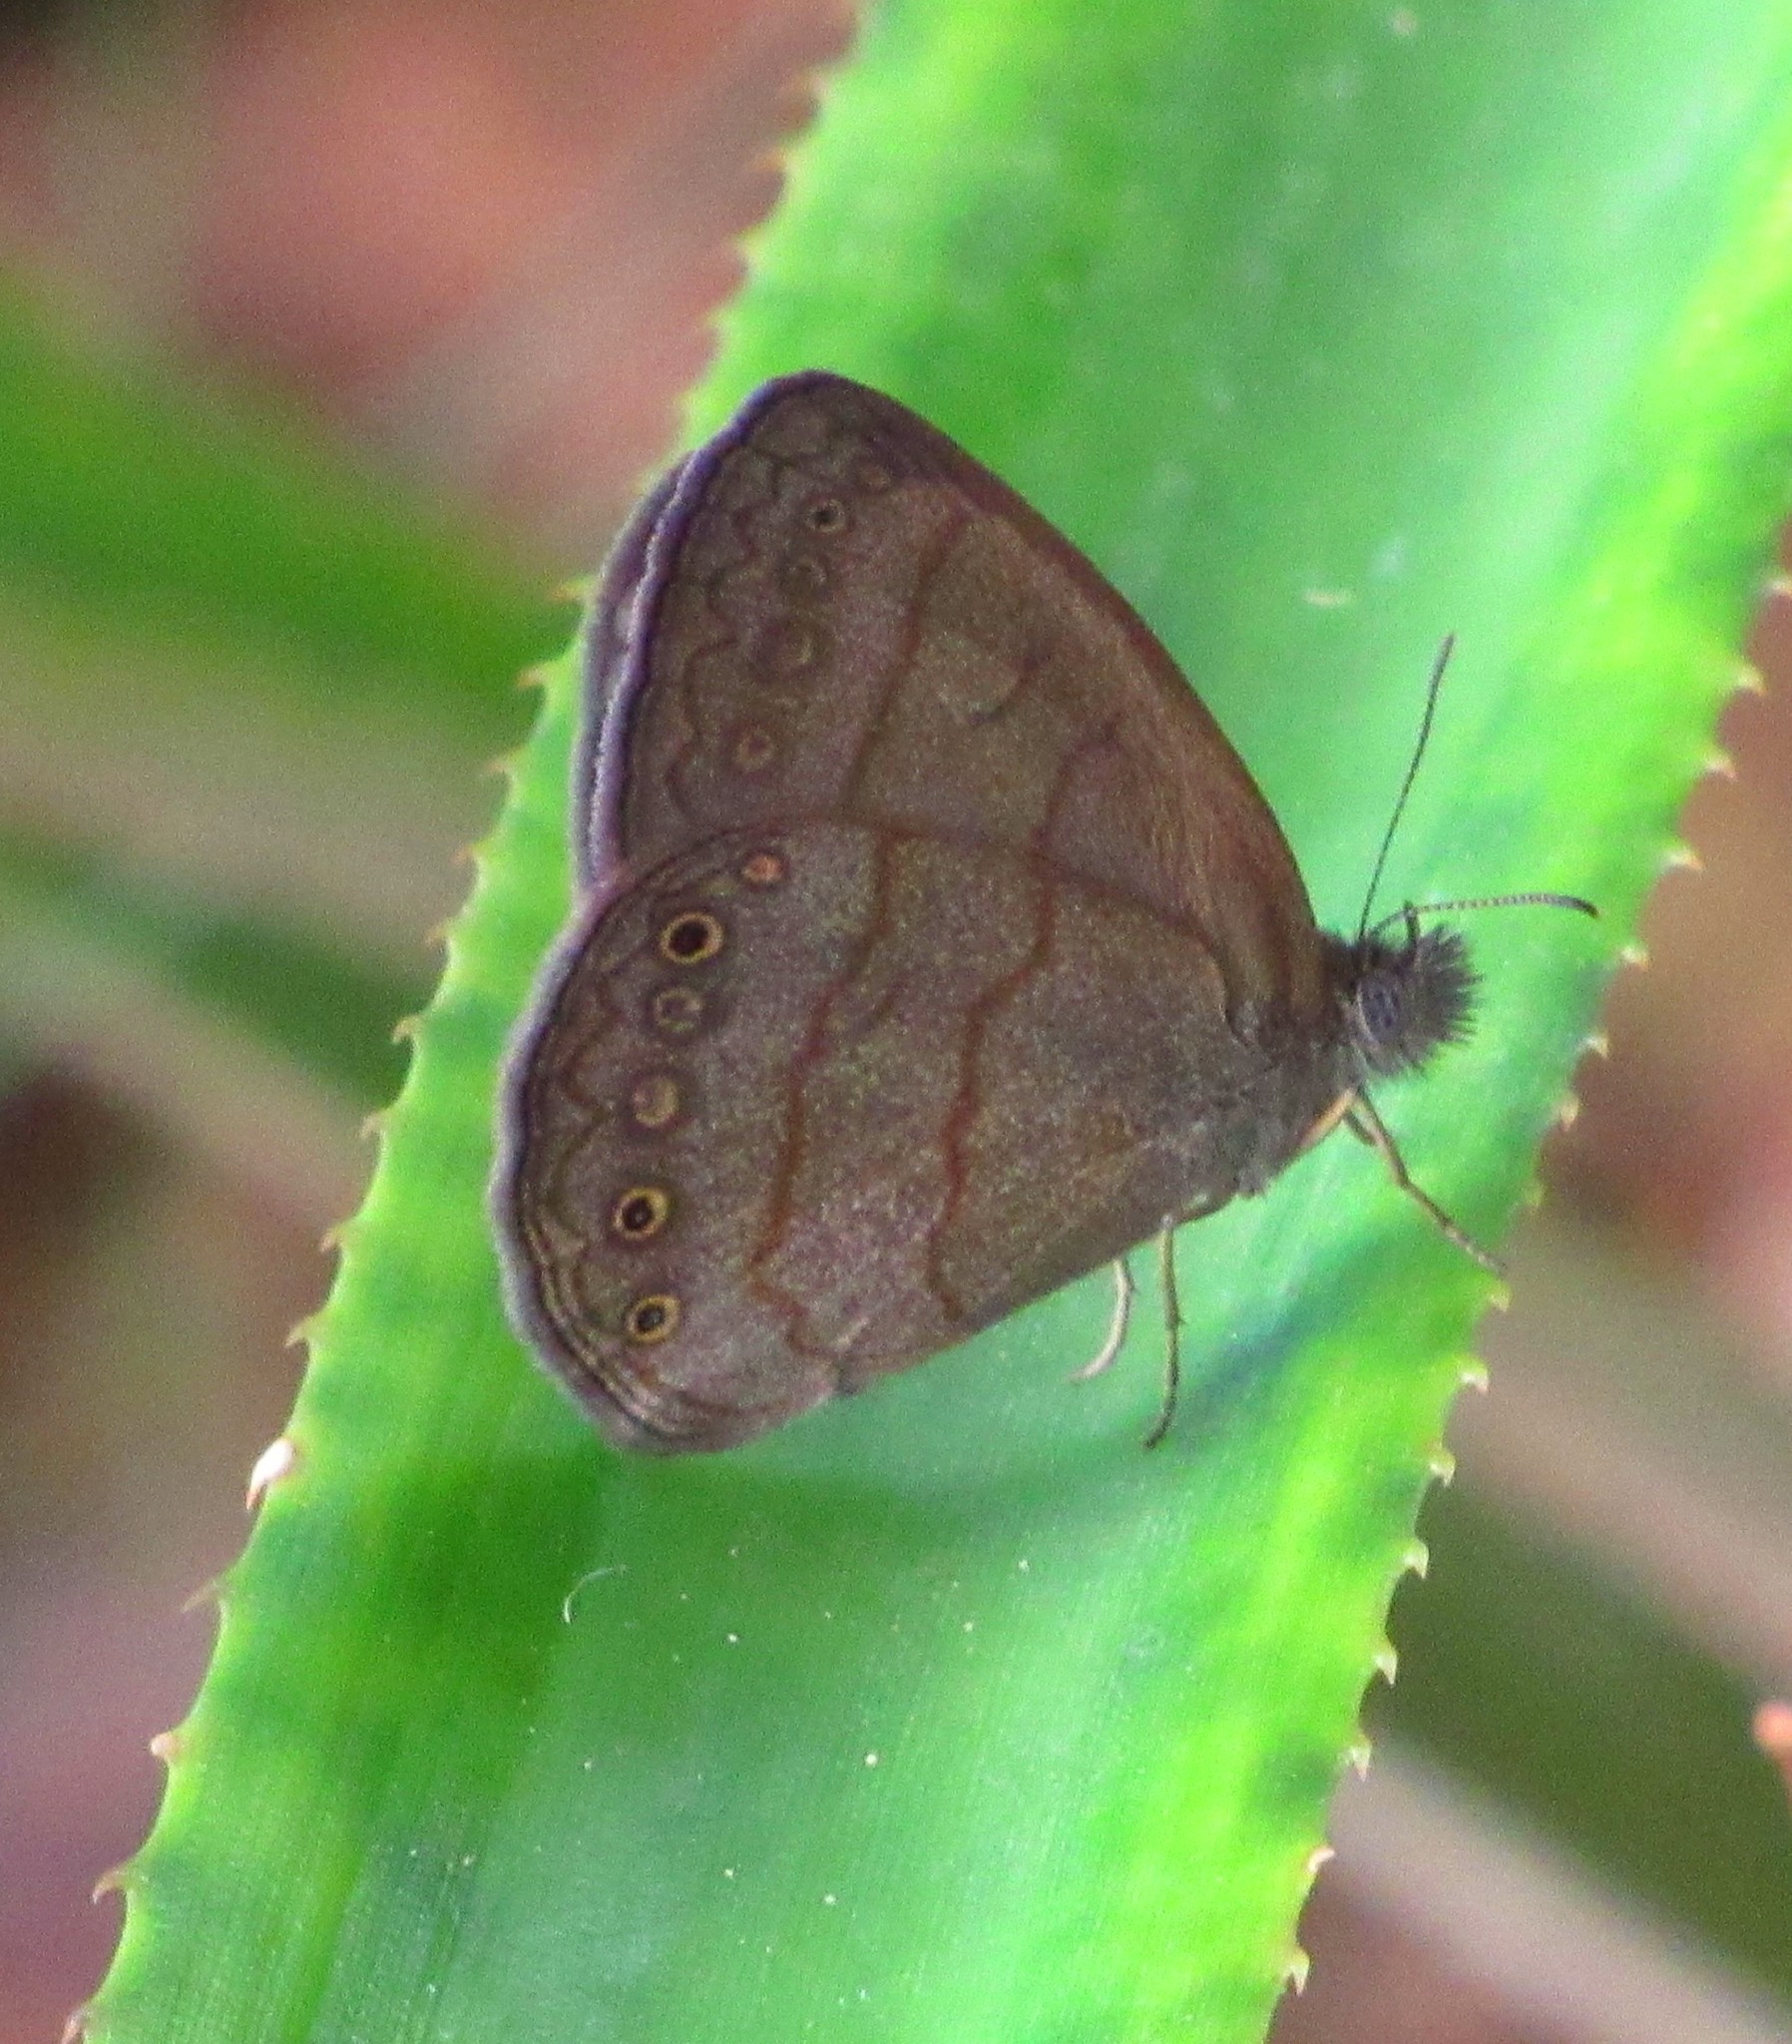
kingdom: Animalia
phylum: Arthropoda
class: Insecta
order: Lepidoptera
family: Nymphalidae
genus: Hermeuptychia
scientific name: Hermeuptychia hermes
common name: Hermes satyr
